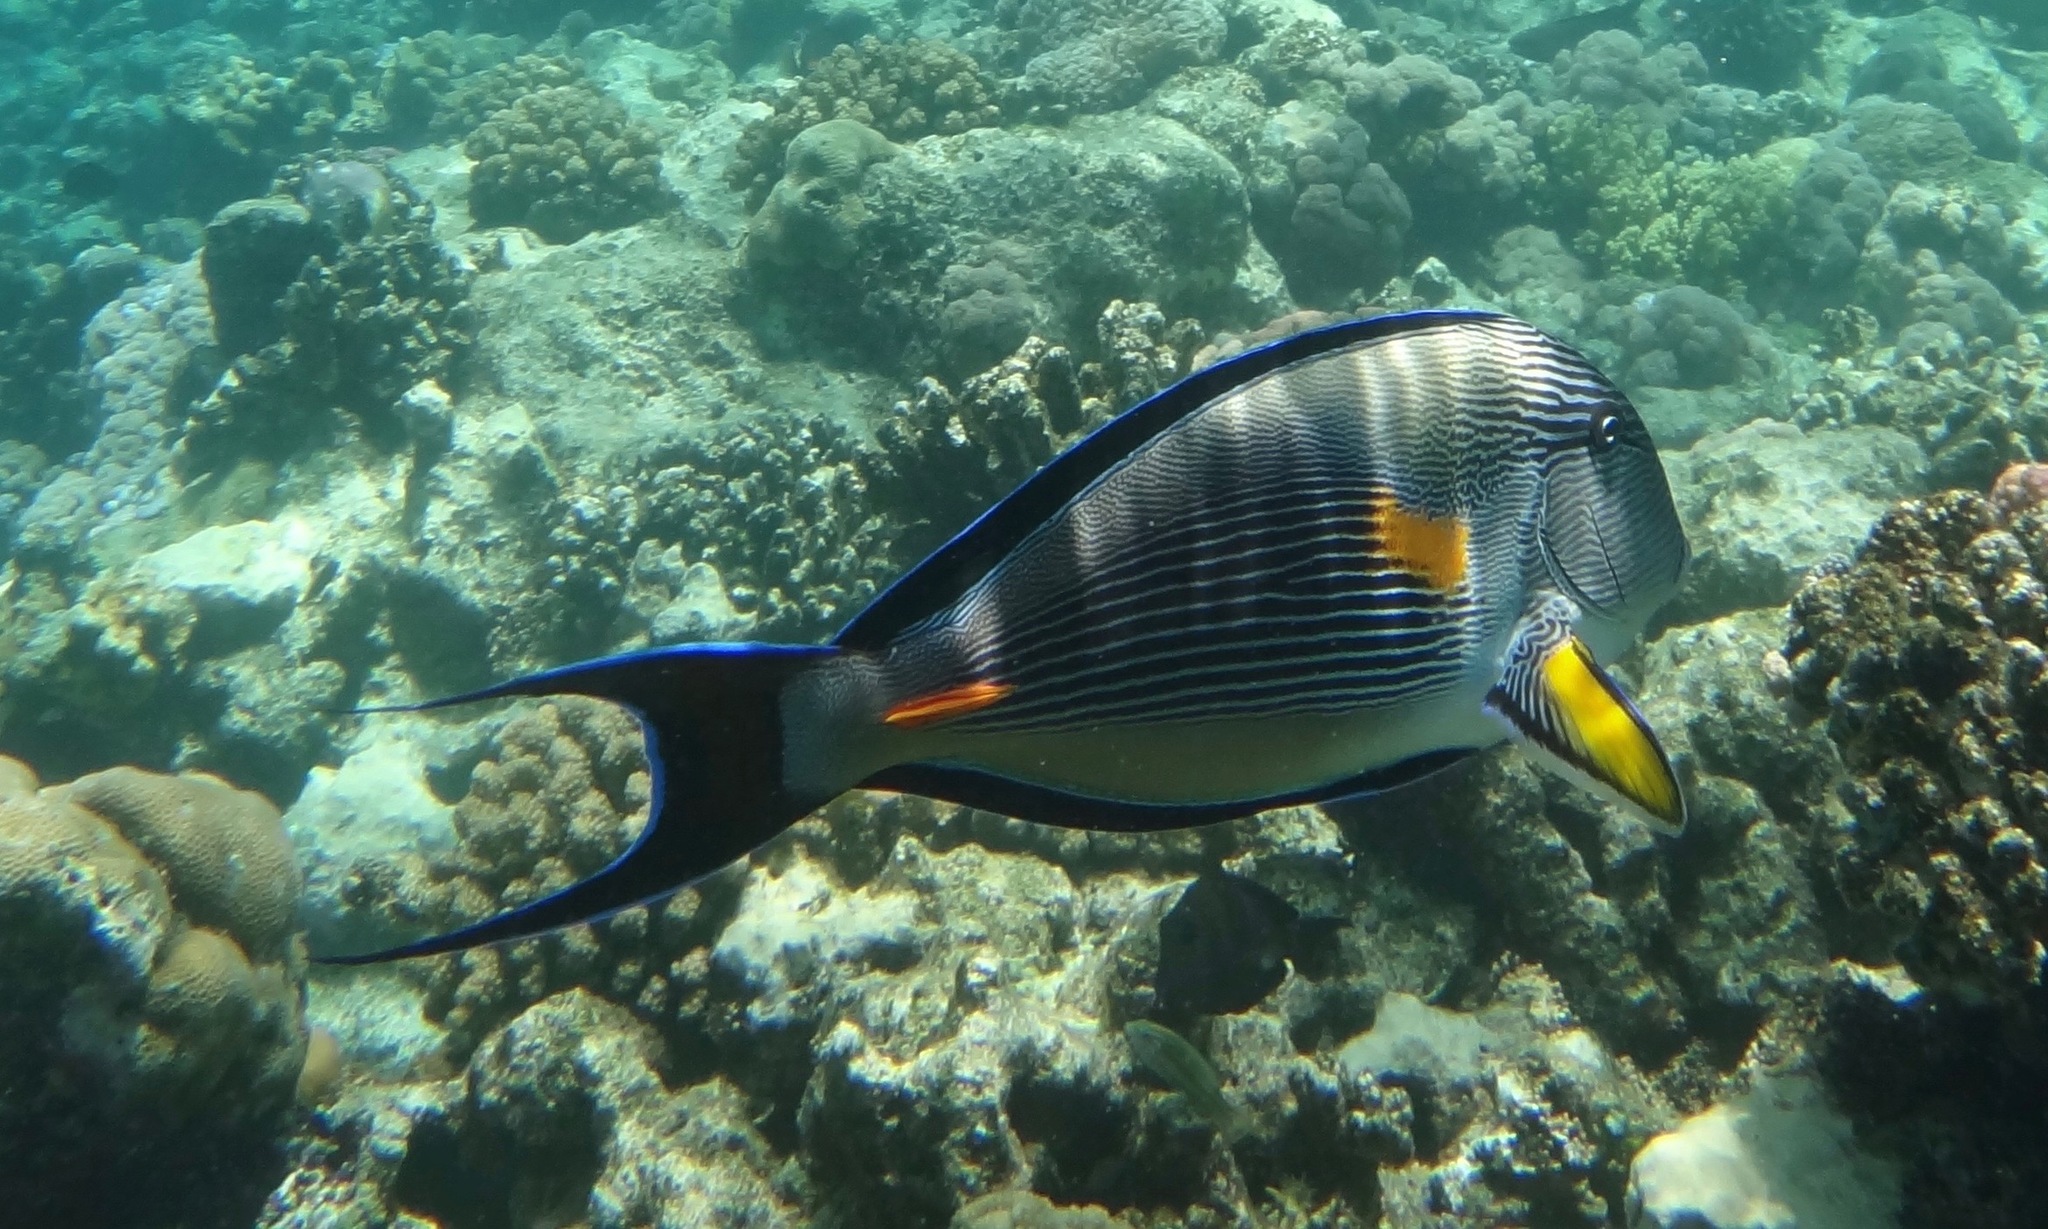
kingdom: Animalia
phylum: Chordata
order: Perciformes
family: Acanthuridae
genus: Acanthurus
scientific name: Acanthurus sohal
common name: Red sea surgeonfish
